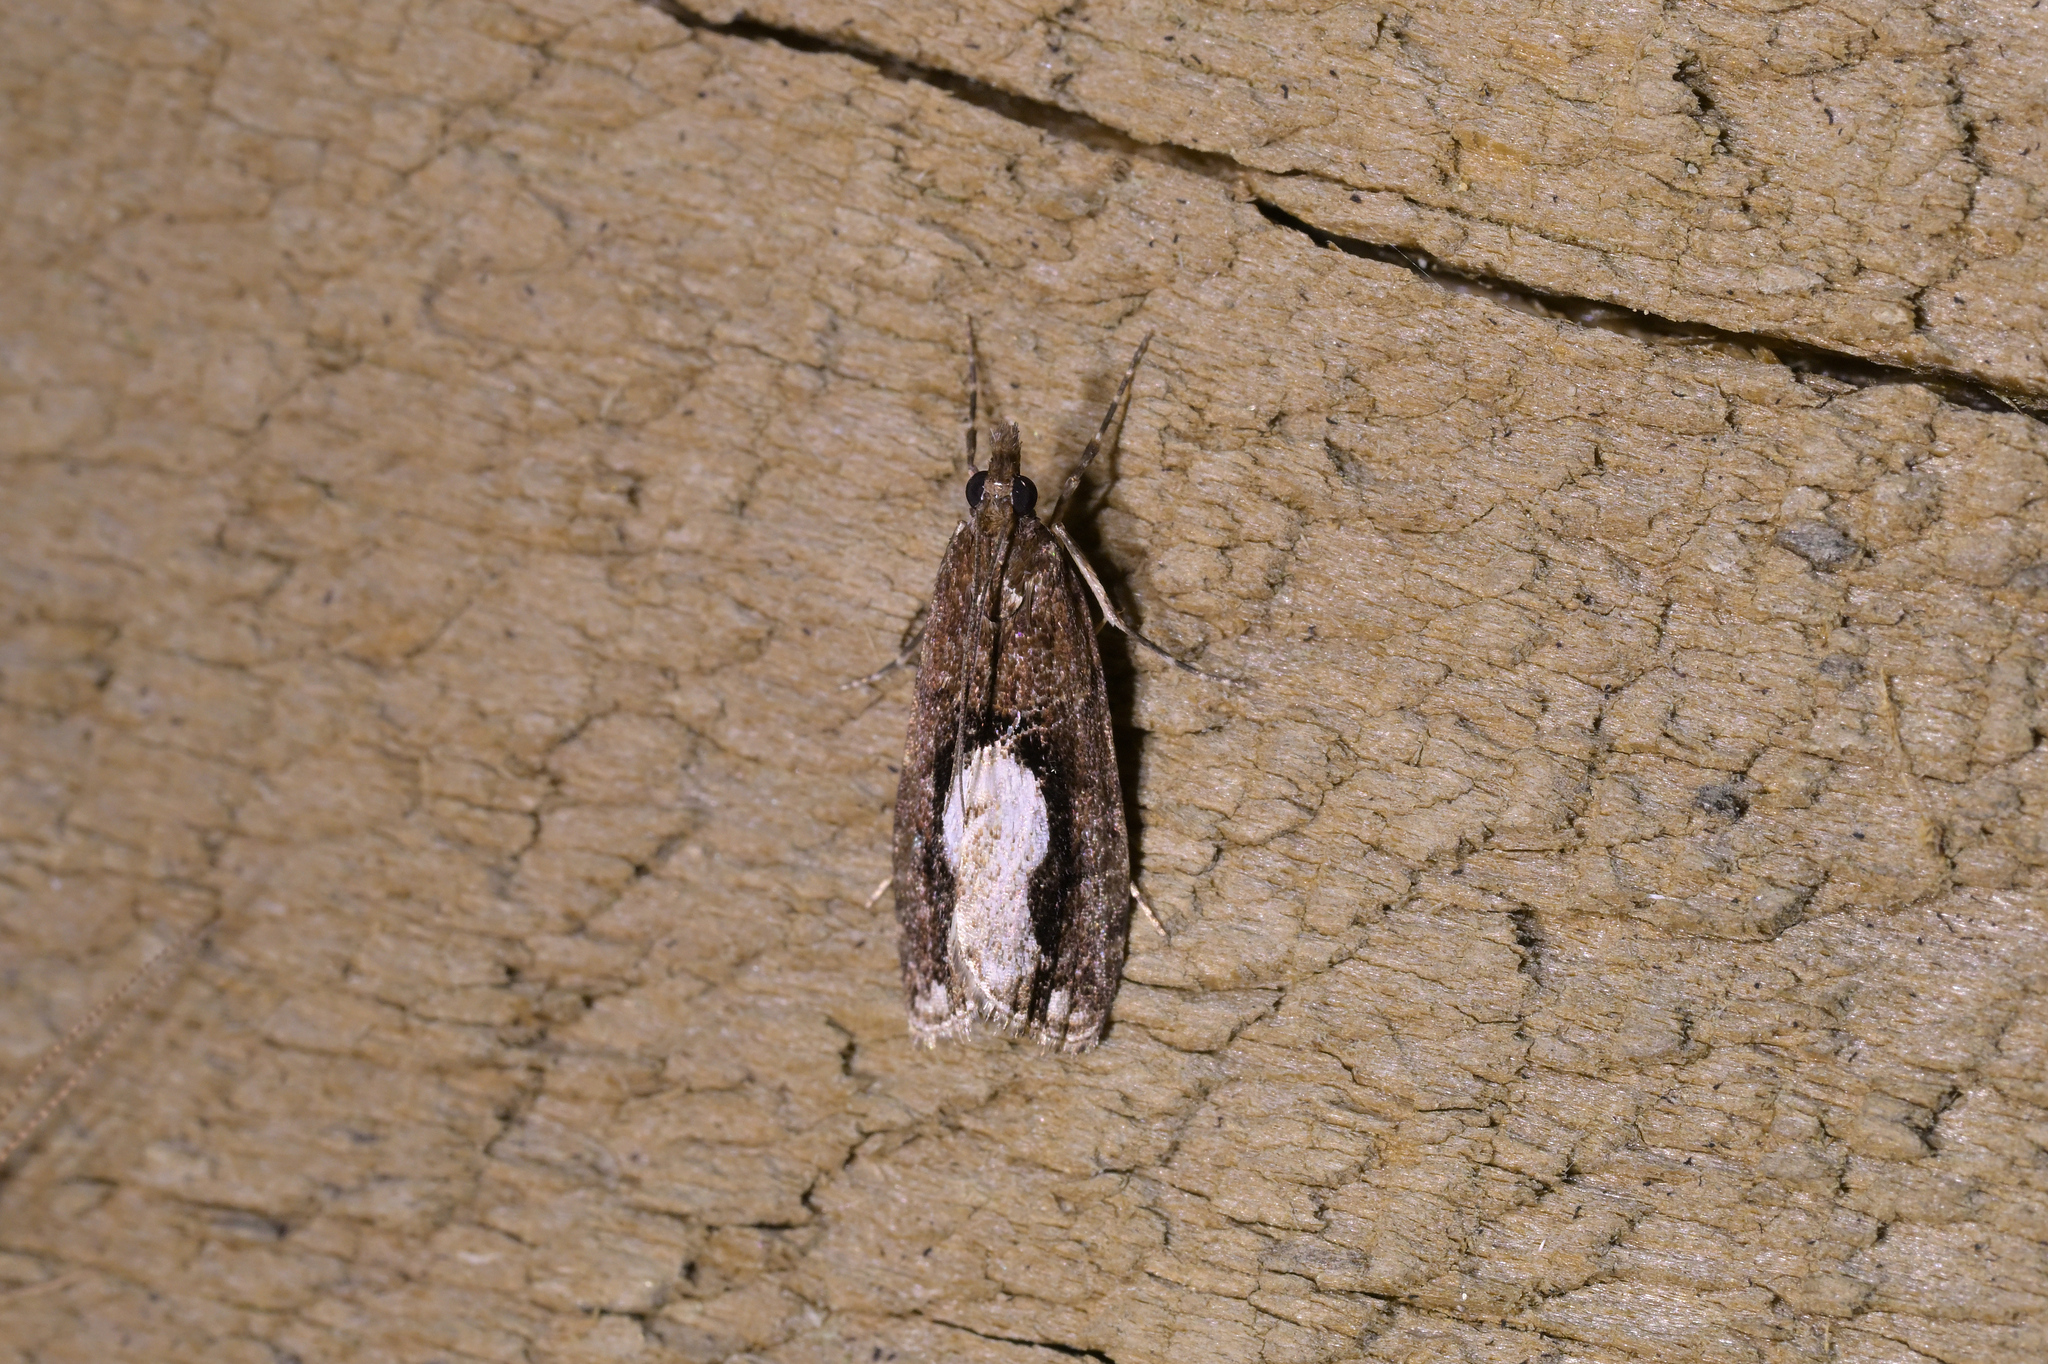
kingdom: Animalia
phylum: Arthropoda
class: Insecta
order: Lepidoptera
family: Crambidae
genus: Eudonia
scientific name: Eudonia hemiplaca
